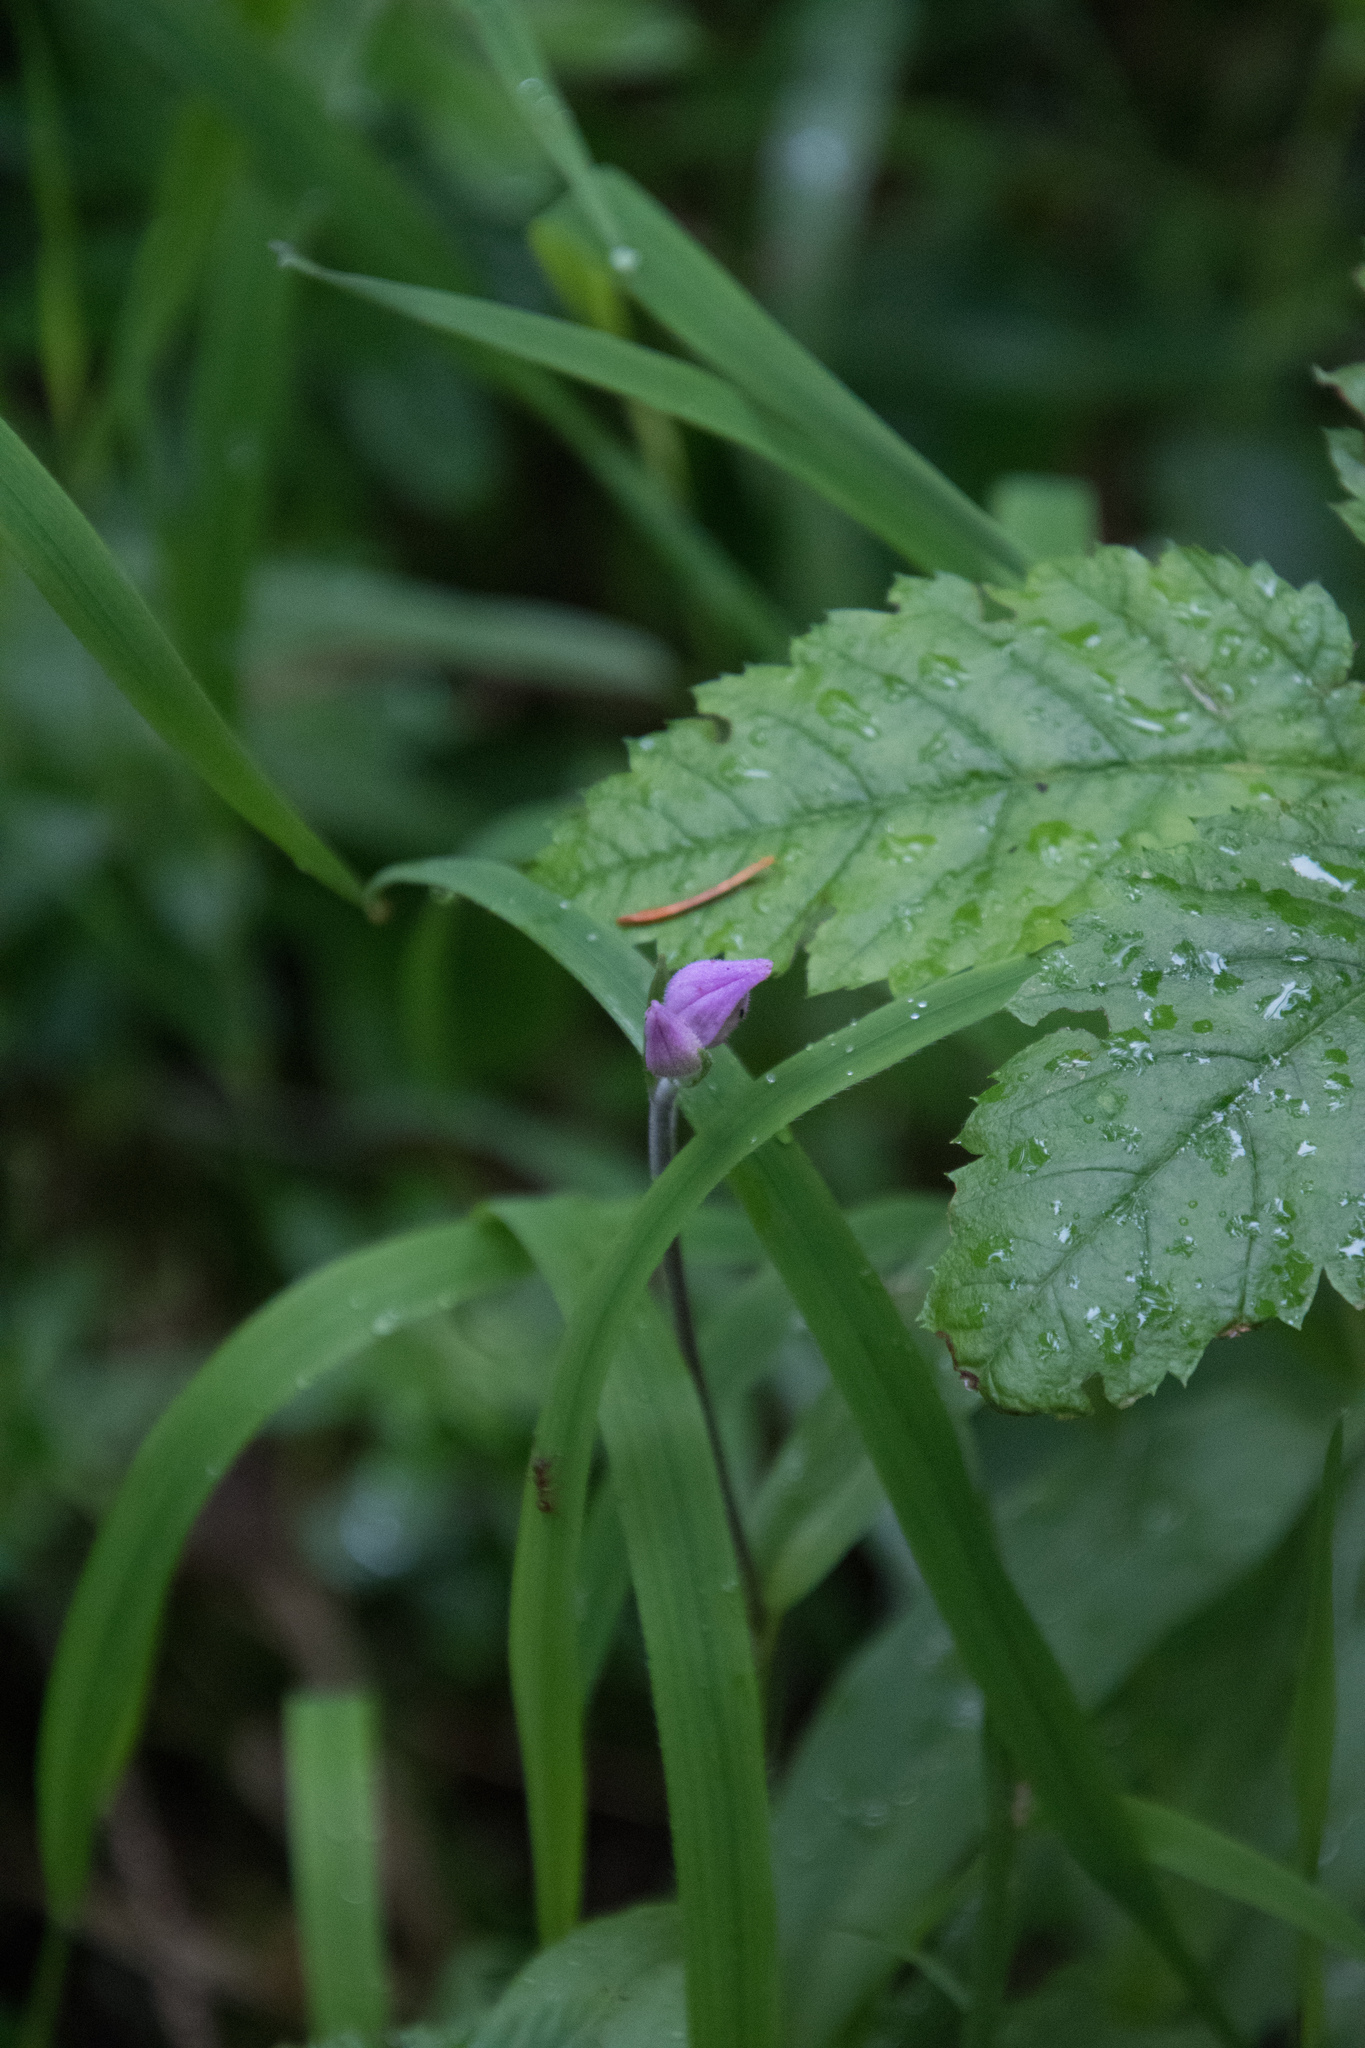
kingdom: Plantae
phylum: Tracheophyta
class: Liliopsida
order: Asparagales
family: Orchidaceae
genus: Cephalanthera
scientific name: Cephalanthera rubra
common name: Red helleborine
